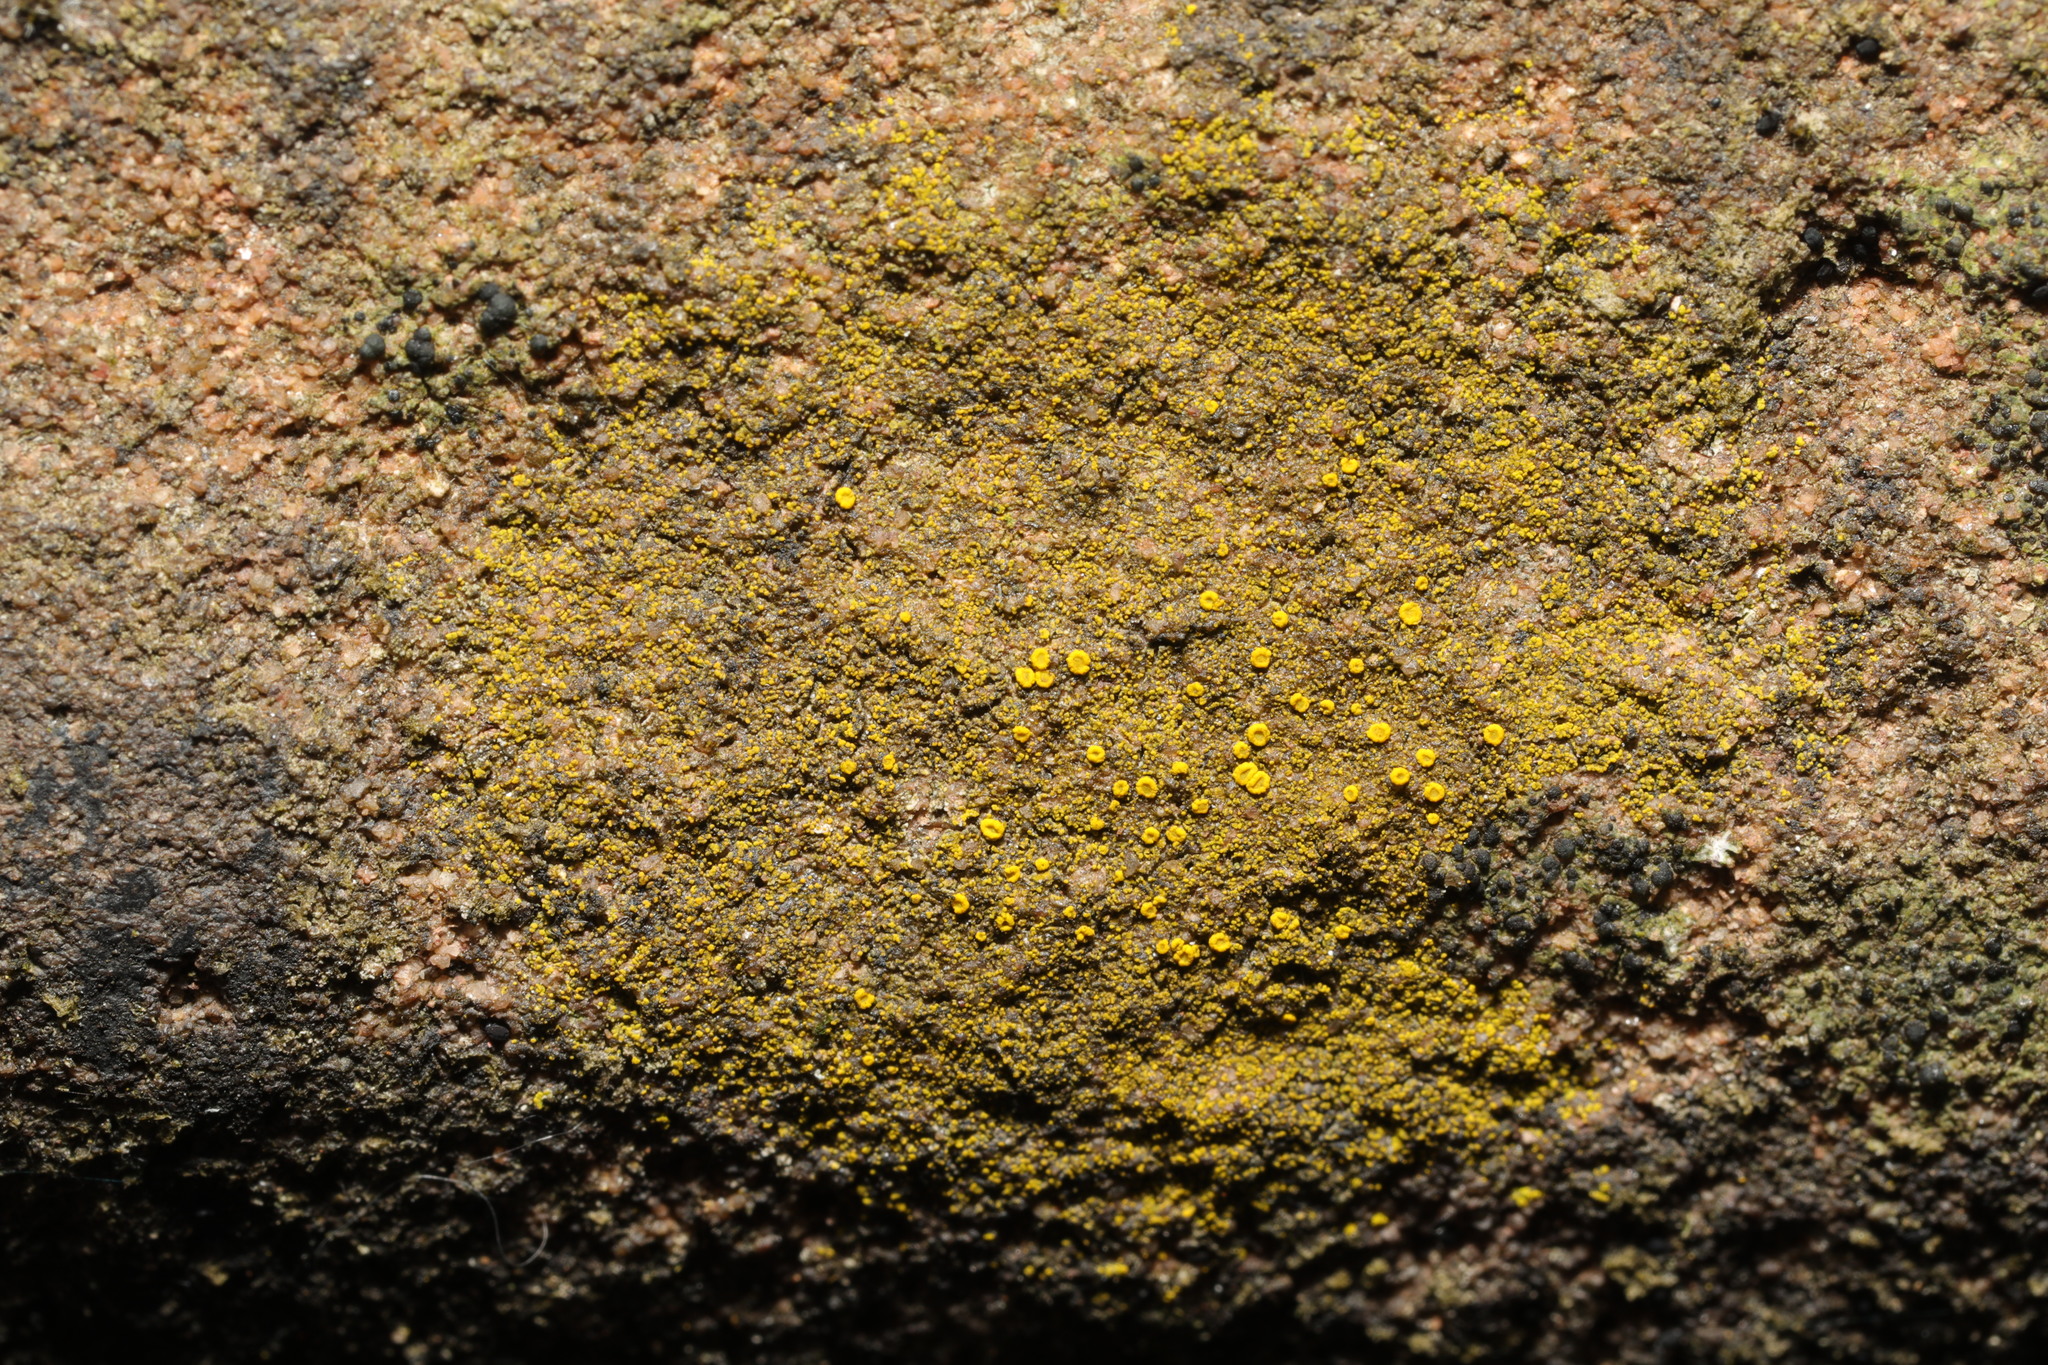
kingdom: Fungi
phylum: Ascomycota
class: Candelariomycetes
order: Candelariales
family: Candelariaceae
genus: Candelariella
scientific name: Candelariella vitellina
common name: Common goldspeck
